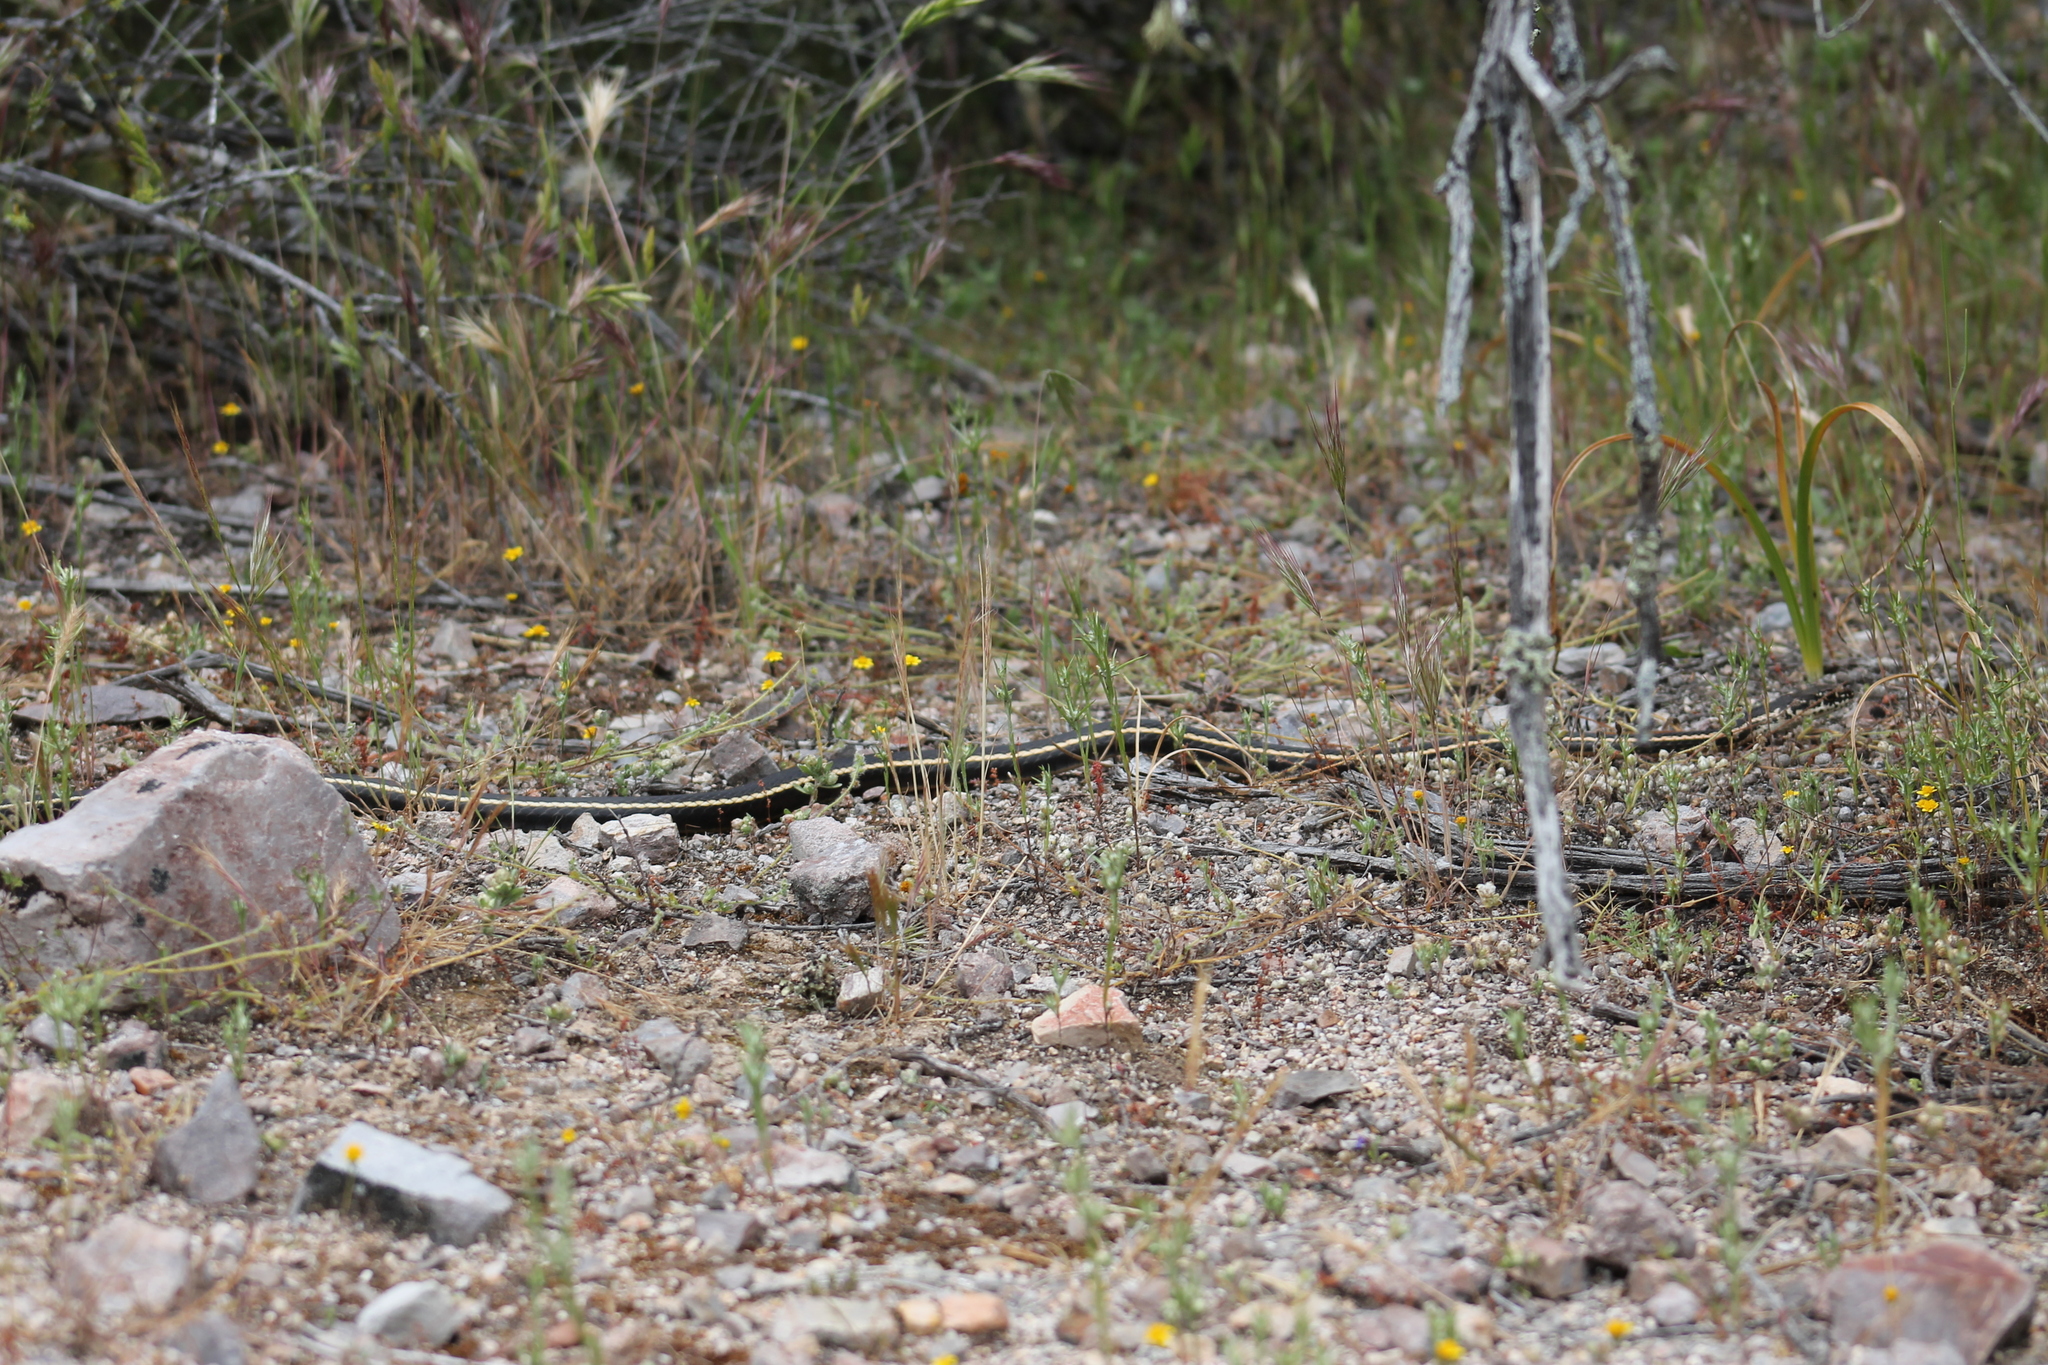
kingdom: Animalia
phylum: Chordata
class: Squamata
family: Colubridae
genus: Masticophis
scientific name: Masticophis lateralis
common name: Striped racer
